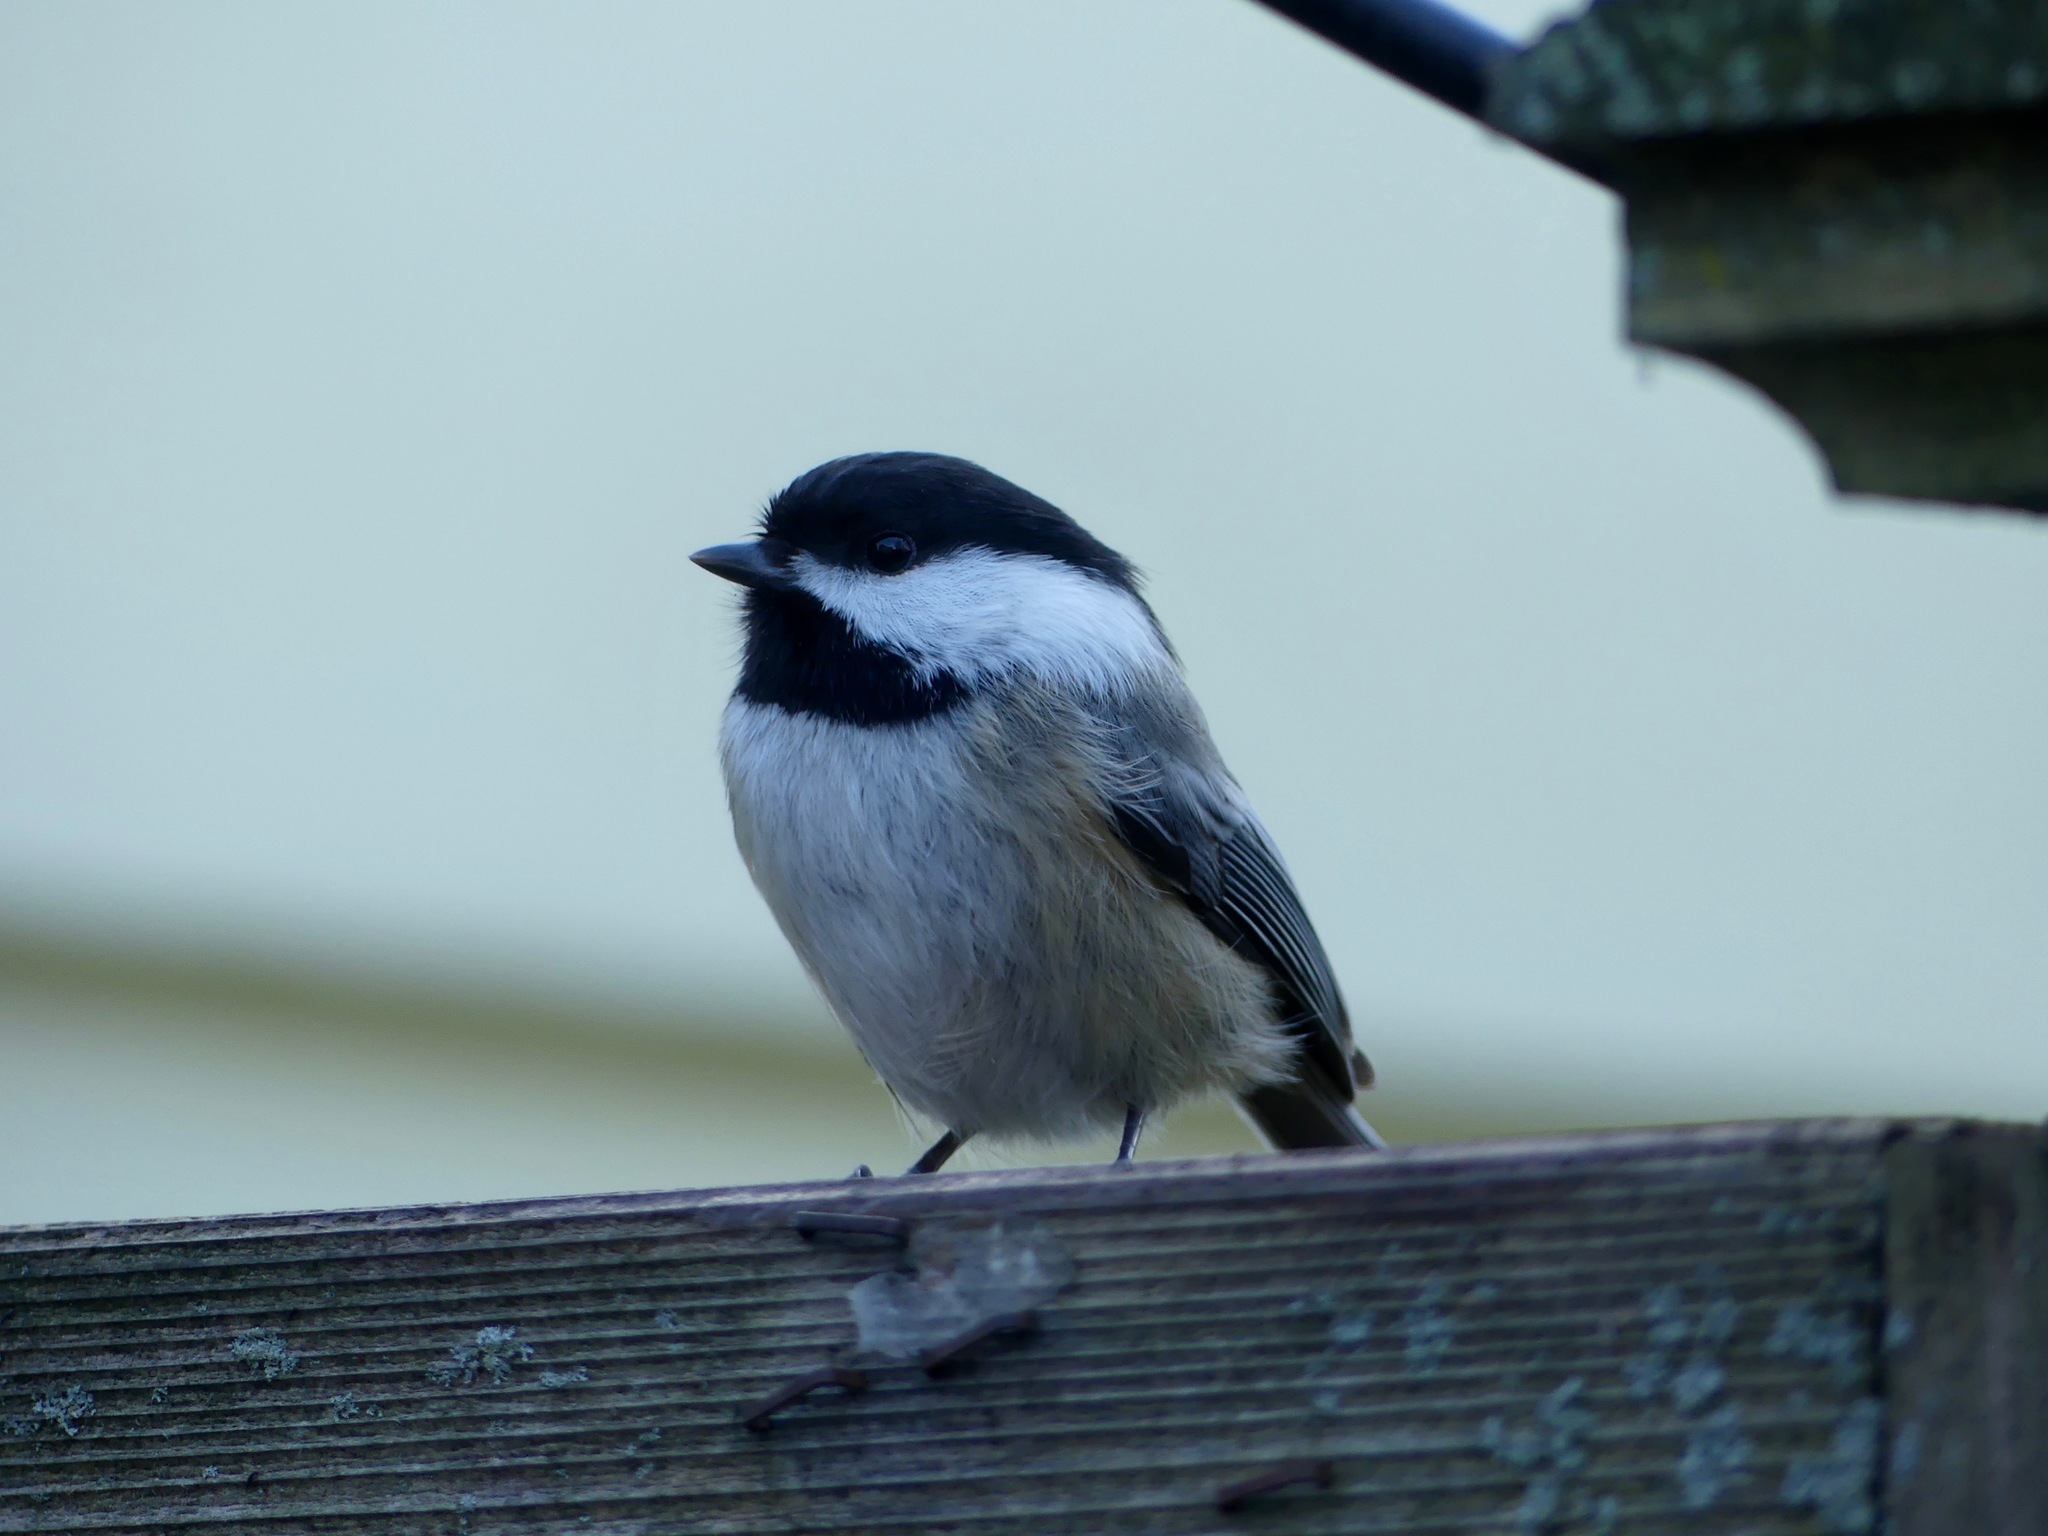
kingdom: Animalia
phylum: Chordata
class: Aves
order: Passeriformes
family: Paridae
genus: Poecile
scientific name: Poecile atricapillus
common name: Black-capped chickadee
